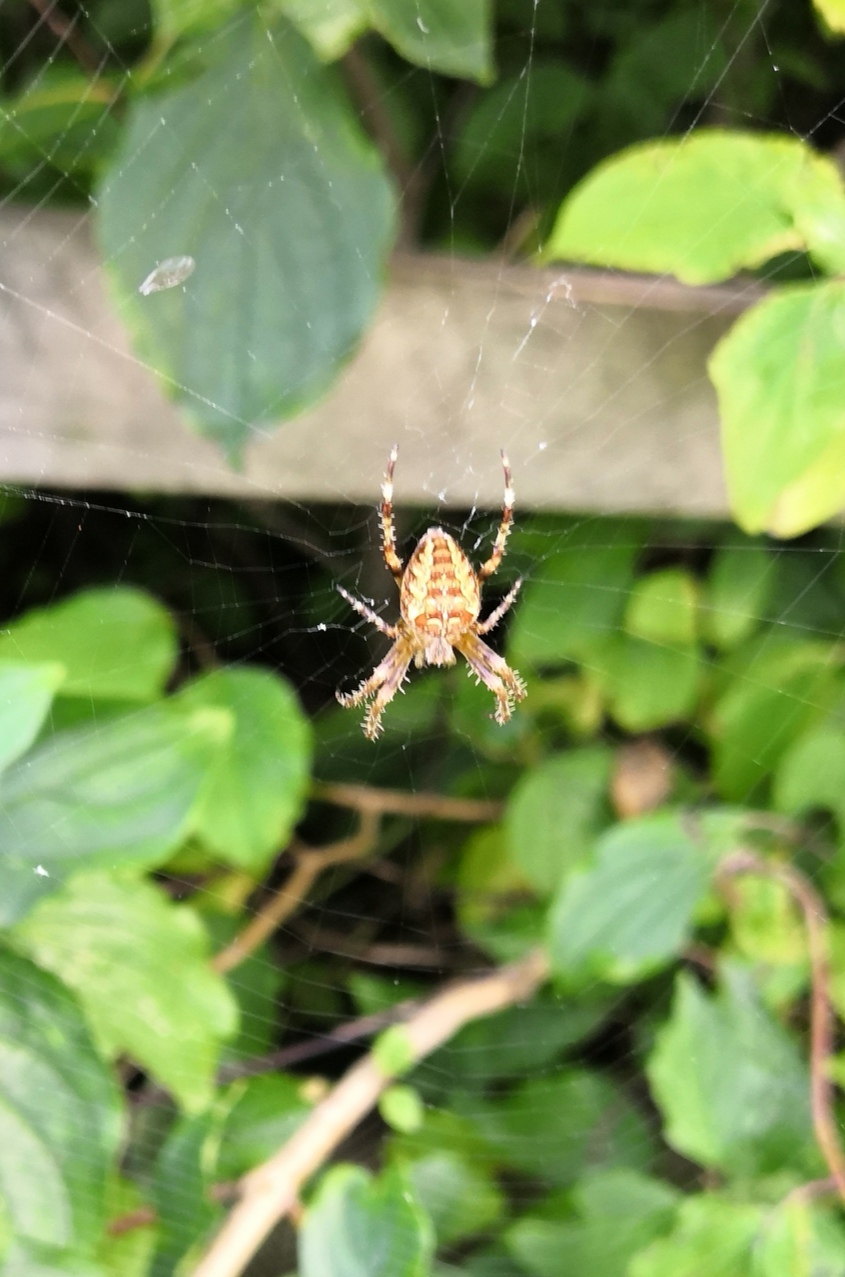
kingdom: Animalia
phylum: Arthropoda
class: Arachnida
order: Araneae
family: Araneidae
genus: Araneus
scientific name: Araneus diadematus
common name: Cross orbweaver
